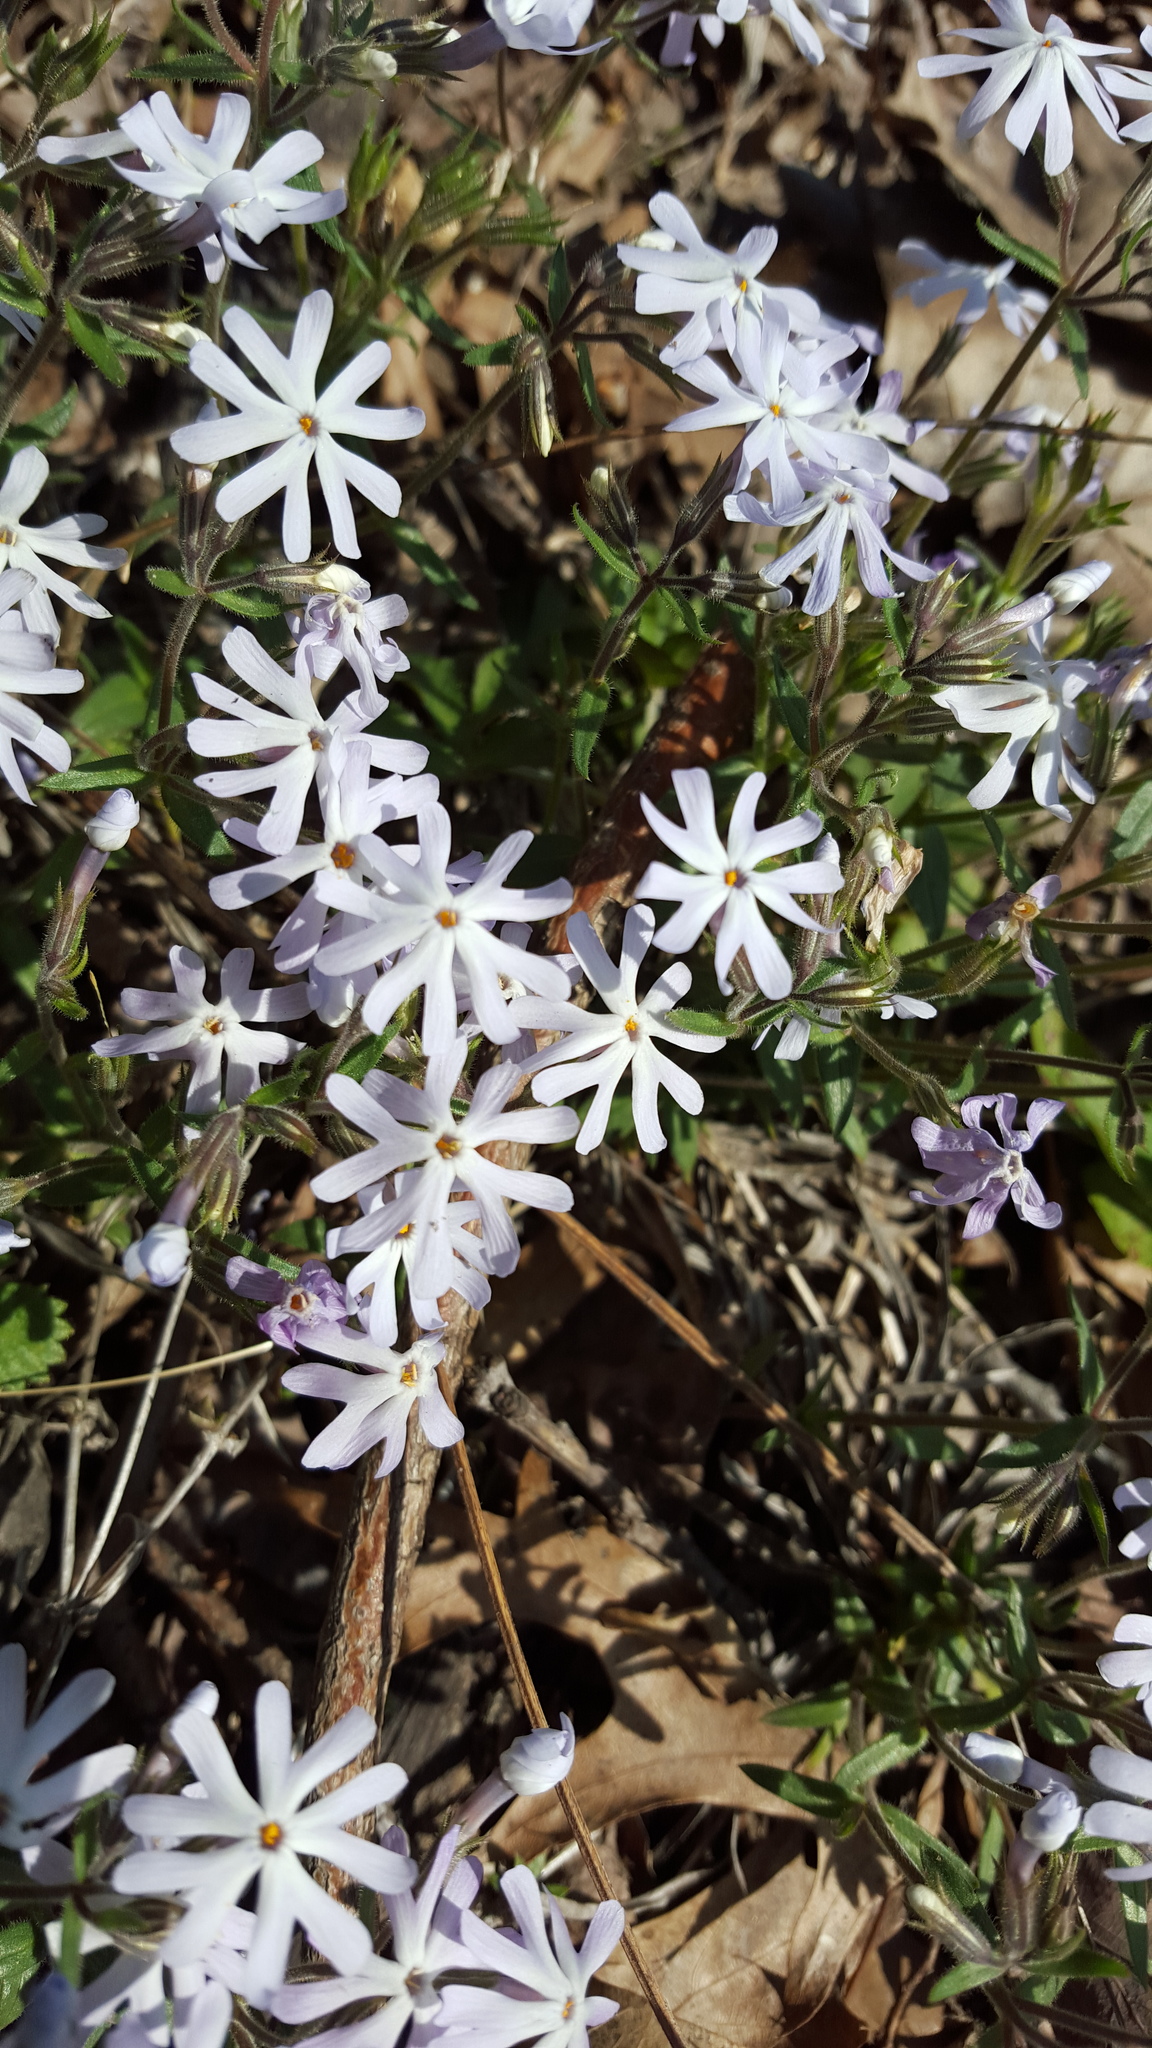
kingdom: Plantae
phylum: Tracheophyta
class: Magnoliopsida
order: Ericales
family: Polemoniaceae
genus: Phlox
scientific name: Phlox bifida
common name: Sand phlox
